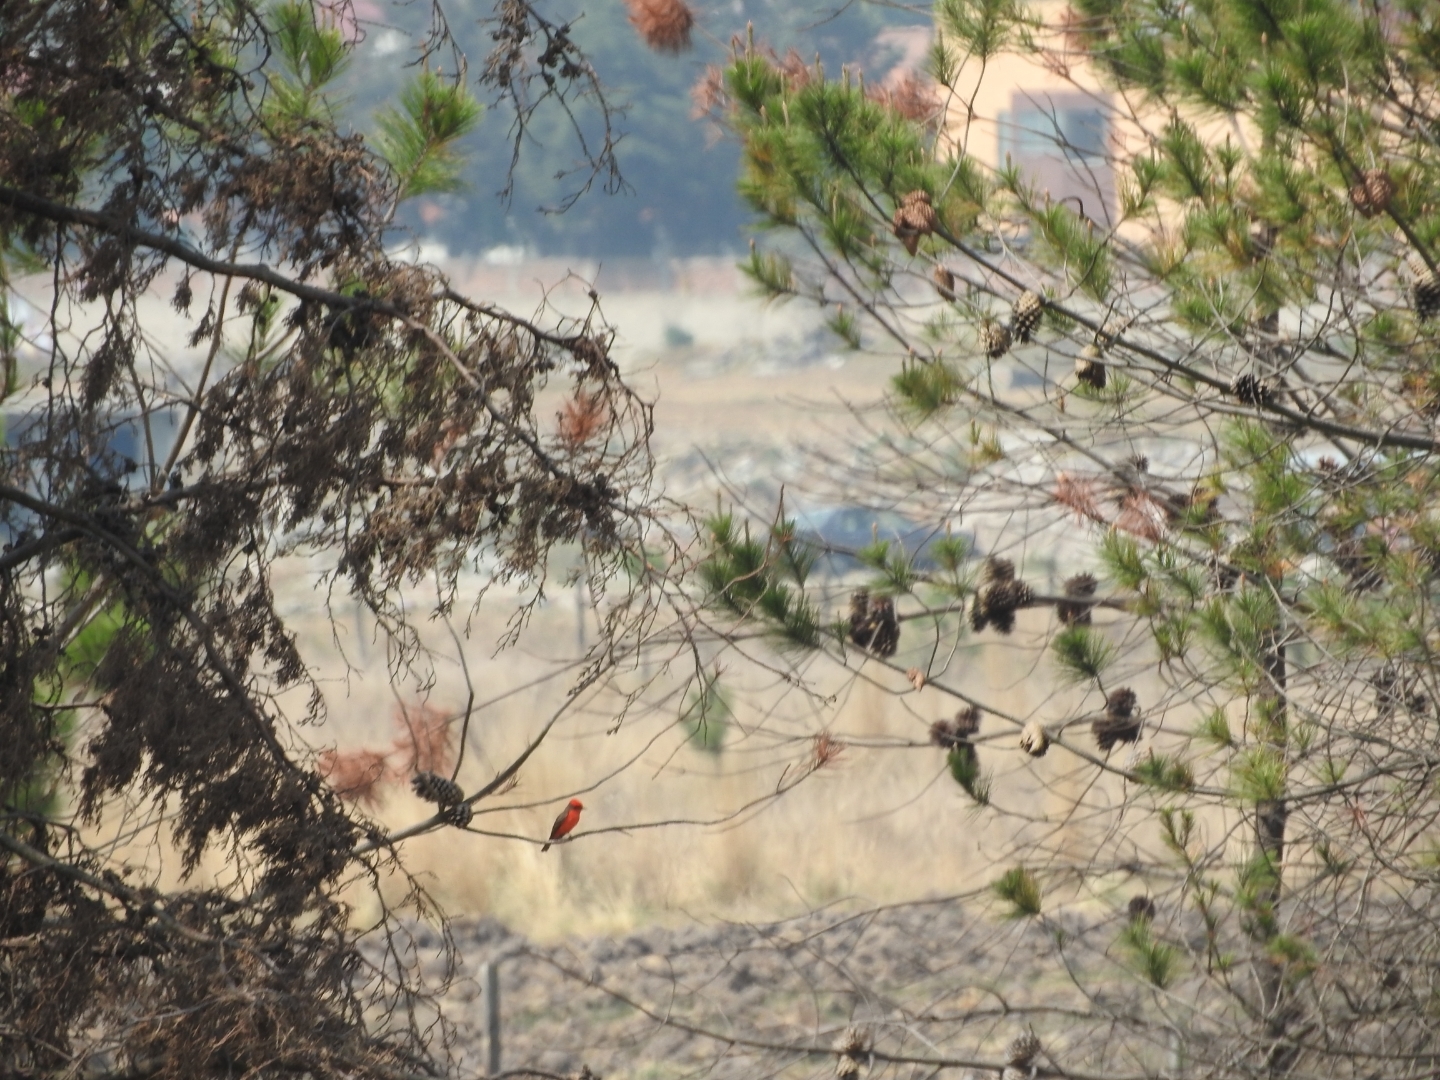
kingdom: Animalia
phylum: Chordata
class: Aves
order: Passeriformes
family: Tyrannidae
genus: Pyrocephalus
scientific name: Pyrocephalus rubinus
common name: Vermilion flycatcher
